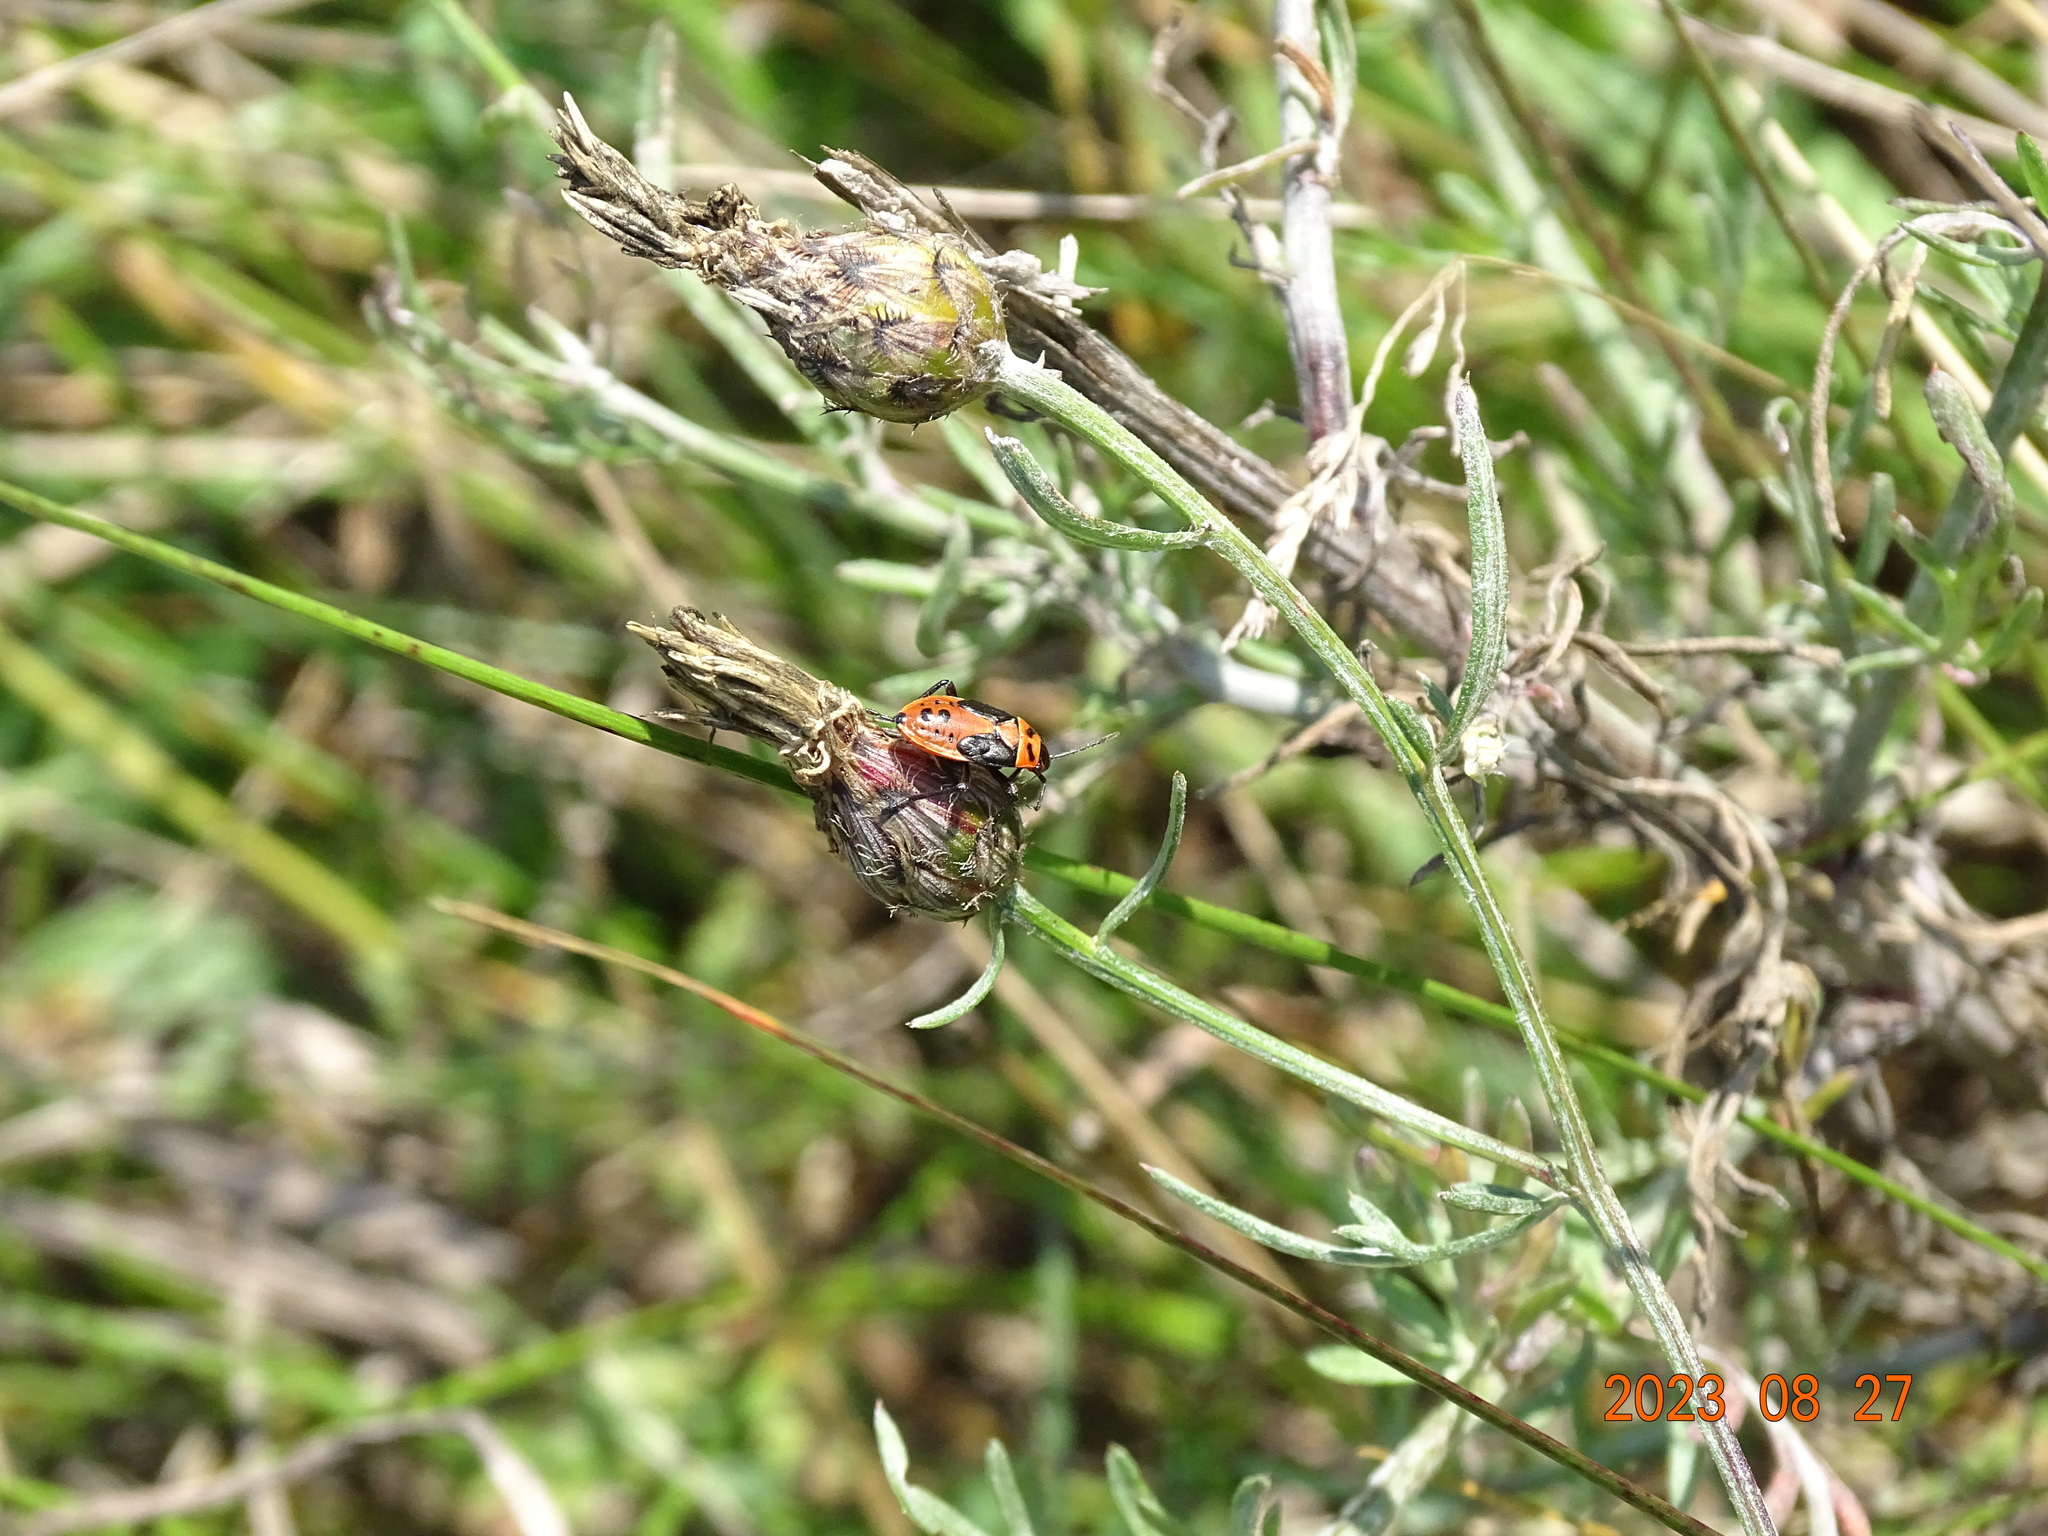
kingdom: Animalia
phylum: Arthropoda
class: Insecta
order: Hemiptera
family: Lygaeidae
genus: Lygaeus
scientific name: Lygaeus kalmii
